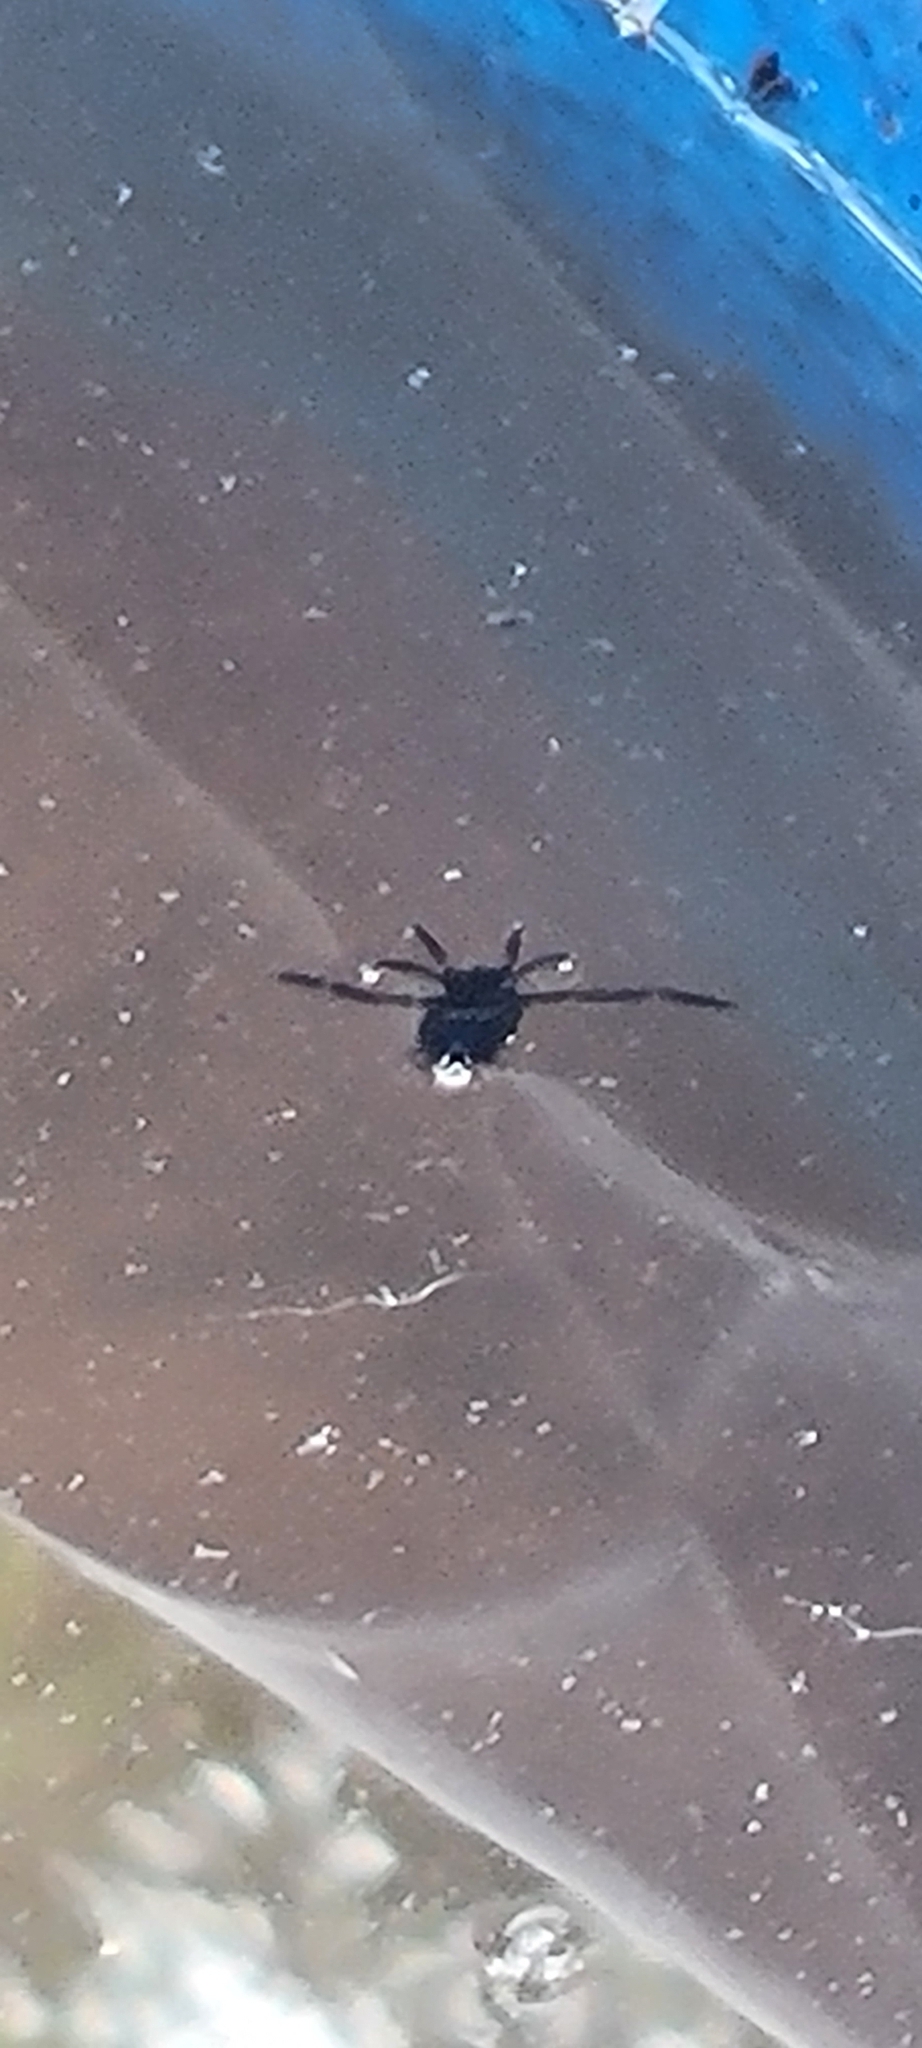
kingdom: Animalia
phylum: Arthropoda
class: Insecta
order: Hemiptera
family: Notonectidae
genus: Notonecta
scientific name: Notonecta
